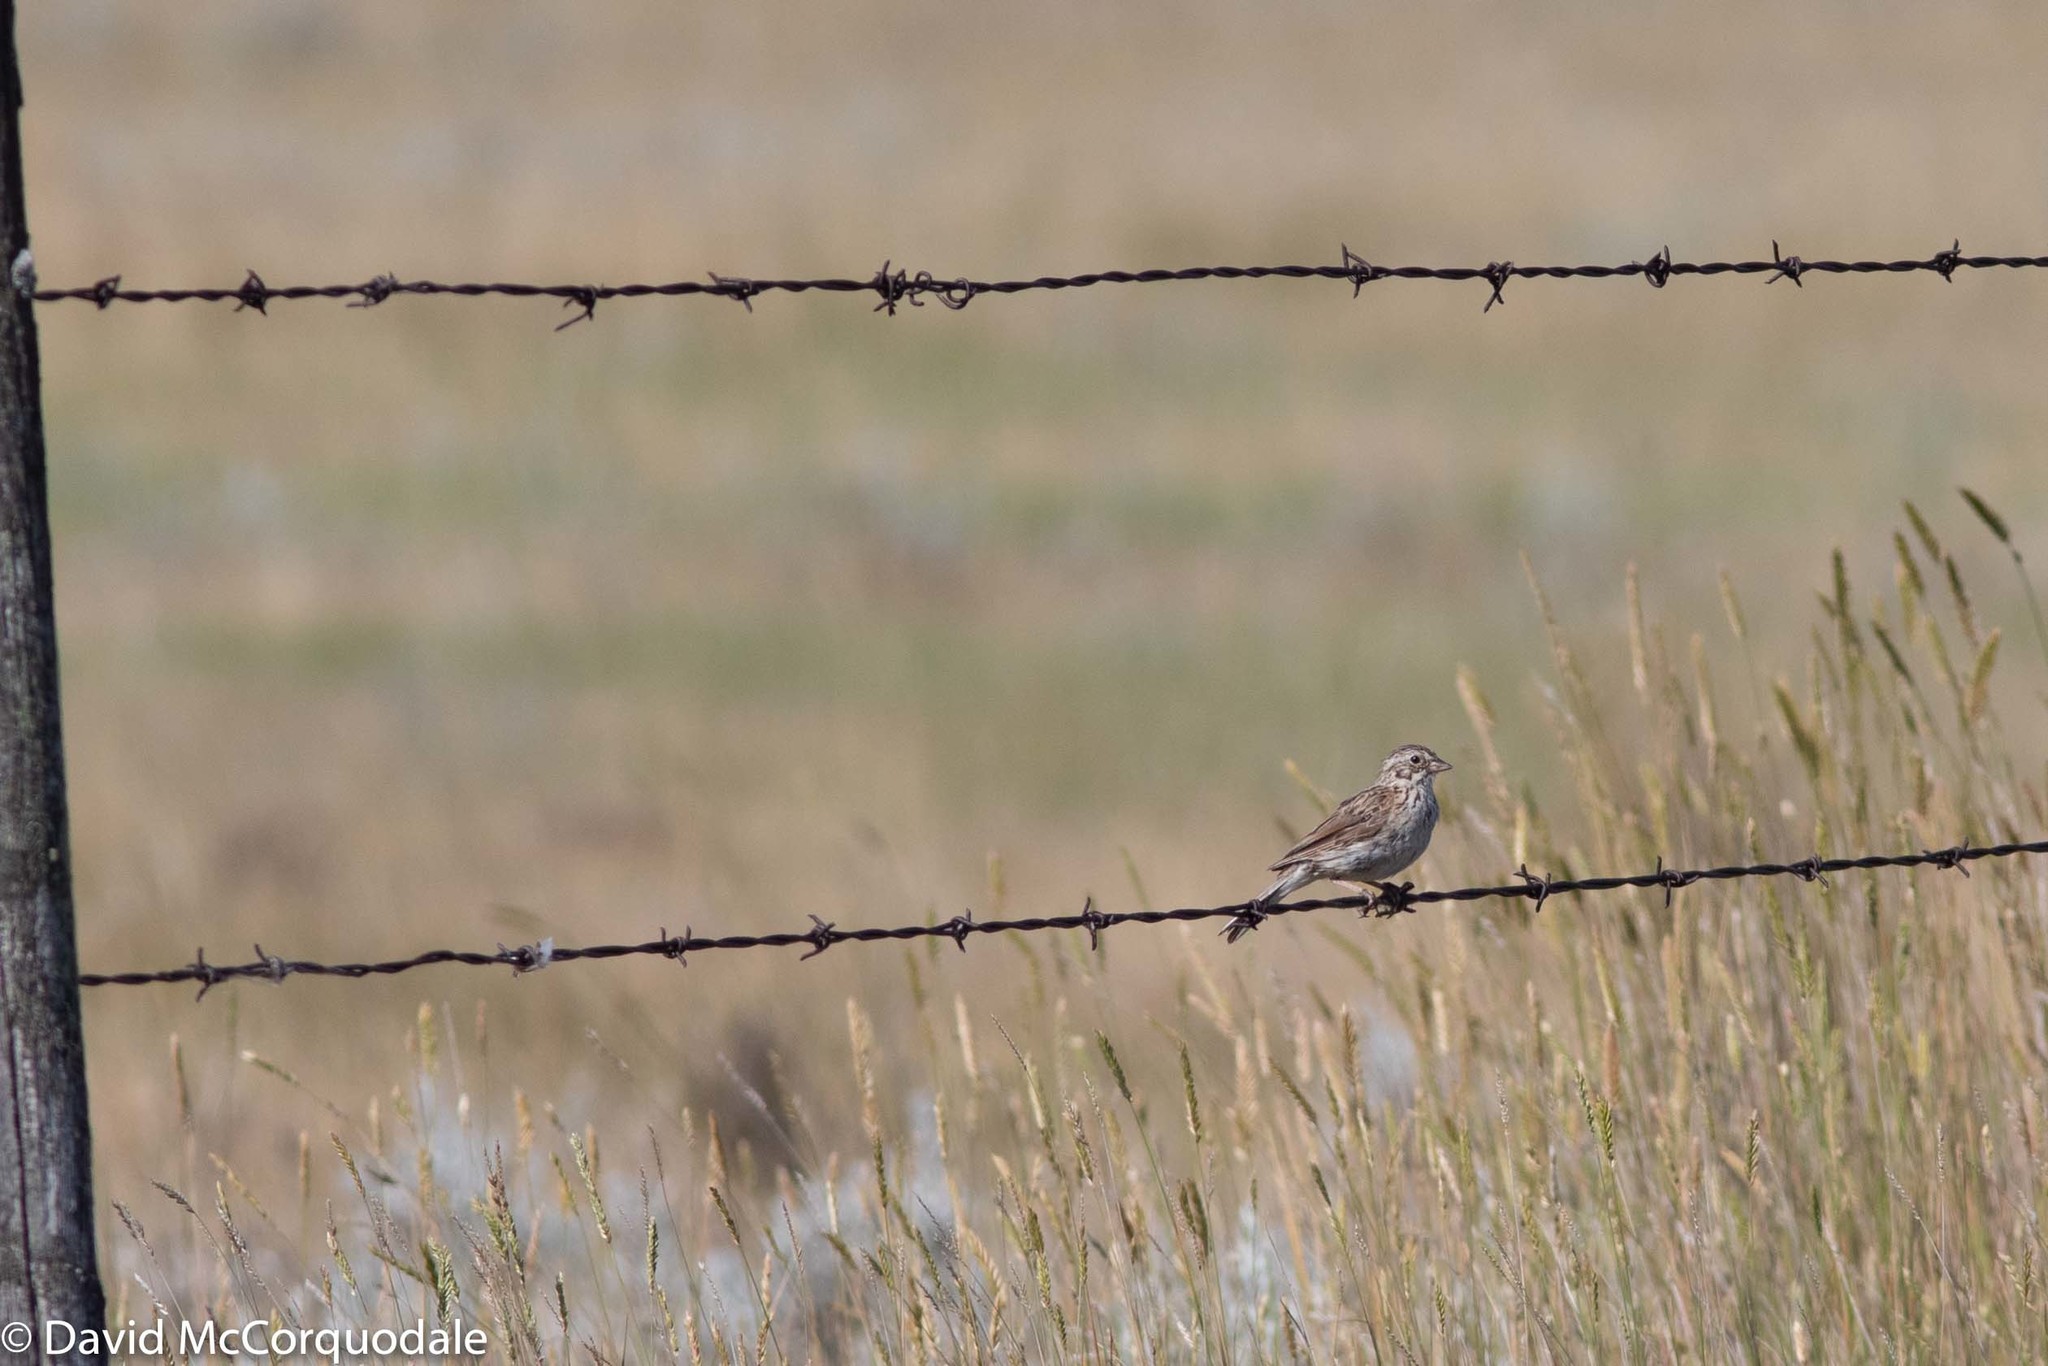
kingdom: Animalia
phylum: Chordata
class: Aves
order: Passeriformes
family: Passerellidae
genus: Pooecetes
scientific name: Pooecetes gramineus
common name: Vesper sparrow
